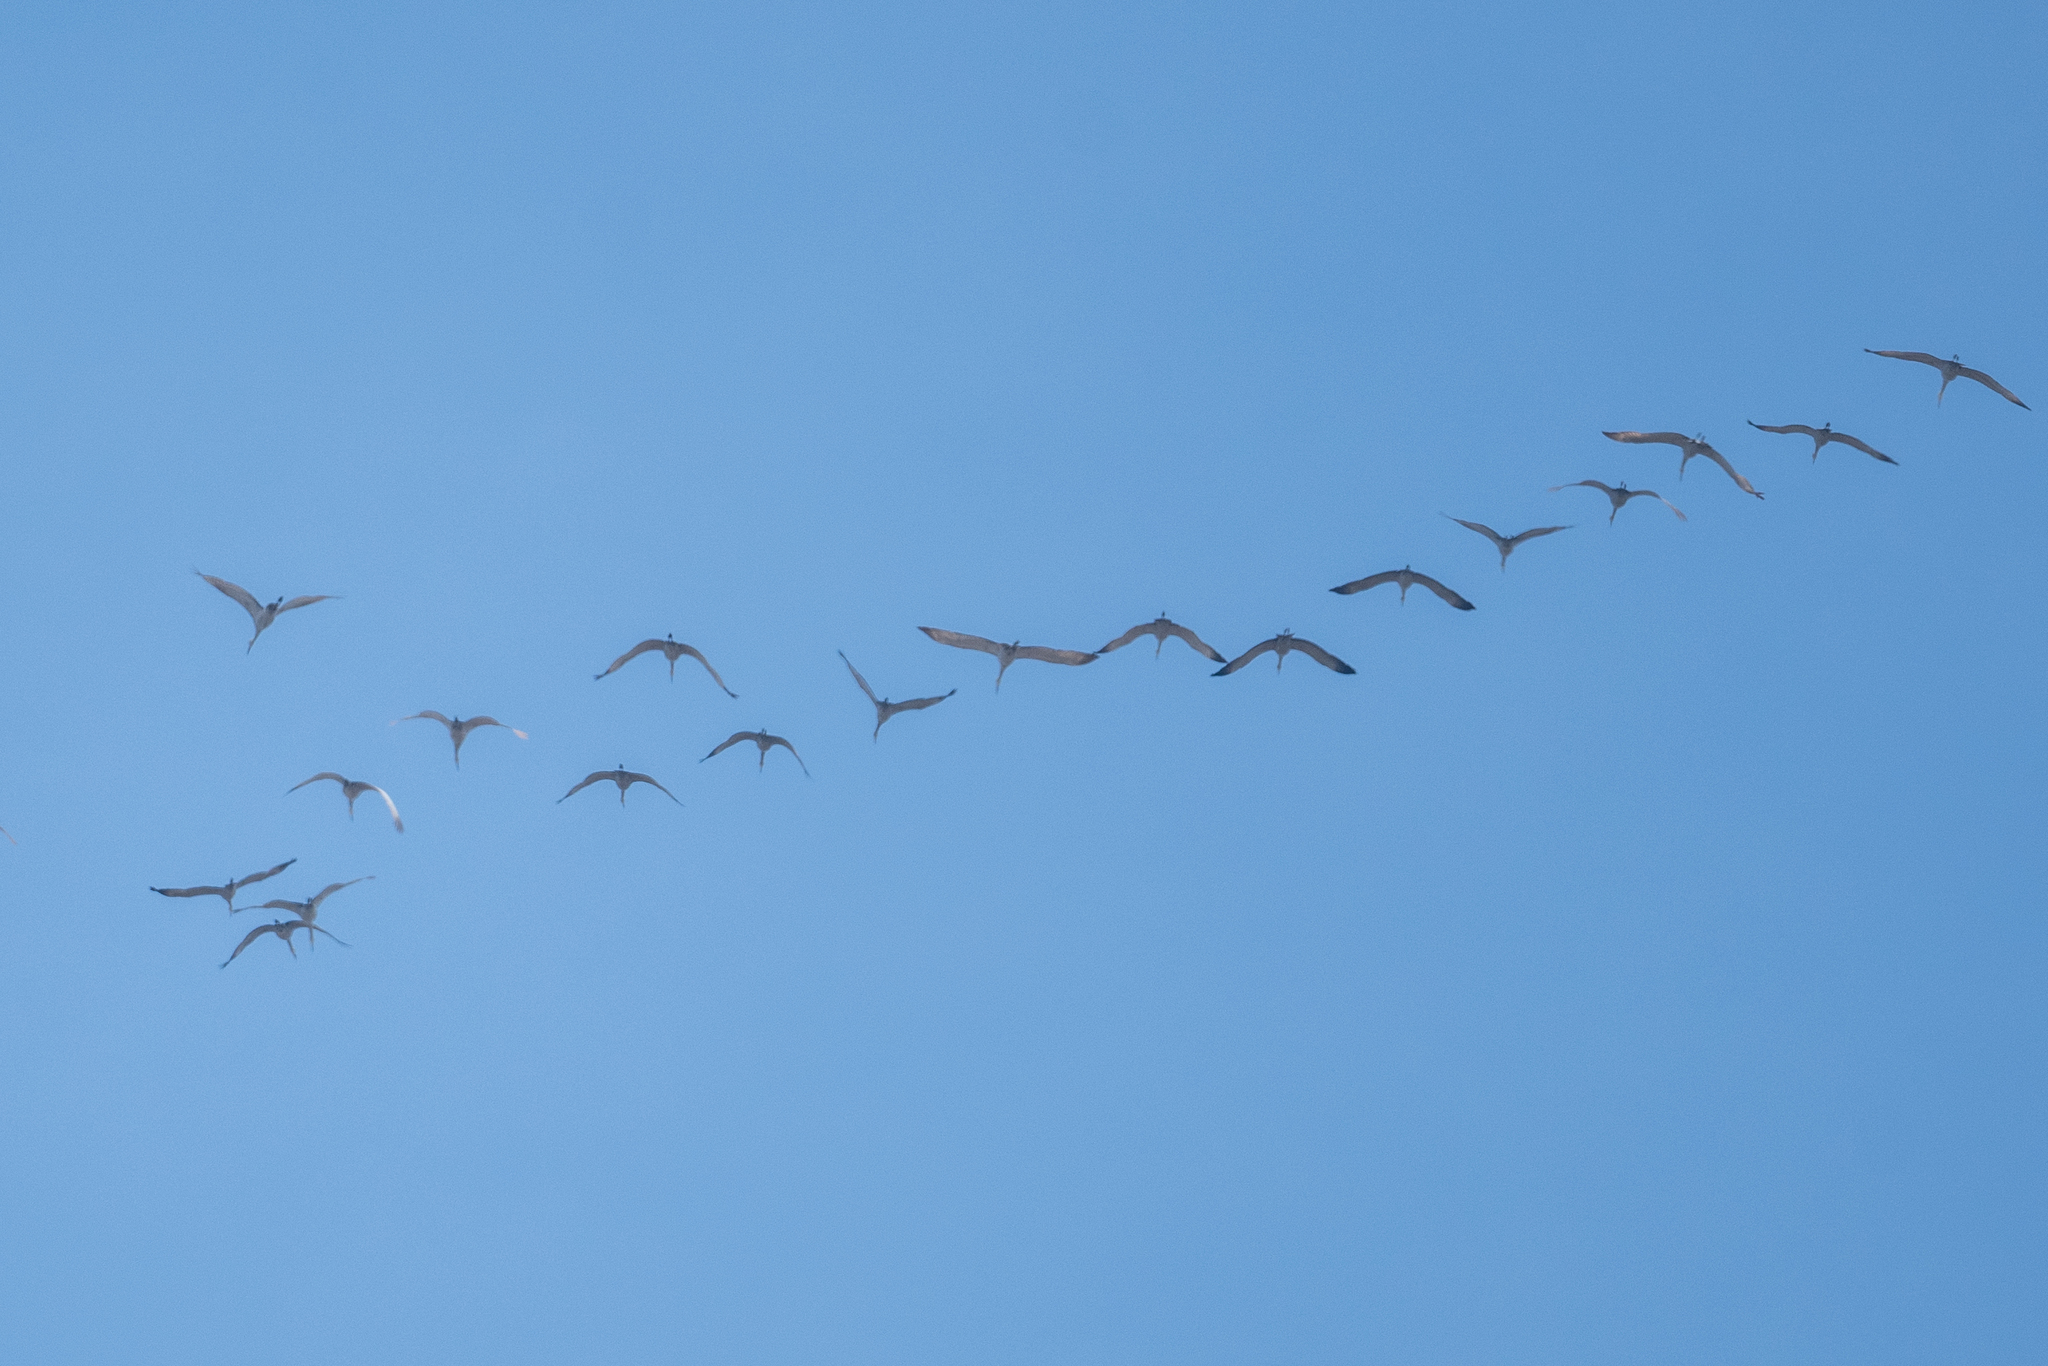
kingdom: Animalia
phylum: Chordata
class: Aves
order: Gruiformes
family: Gruidae
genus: Grus
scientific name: Grus canadensis
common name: Sandhill crane
